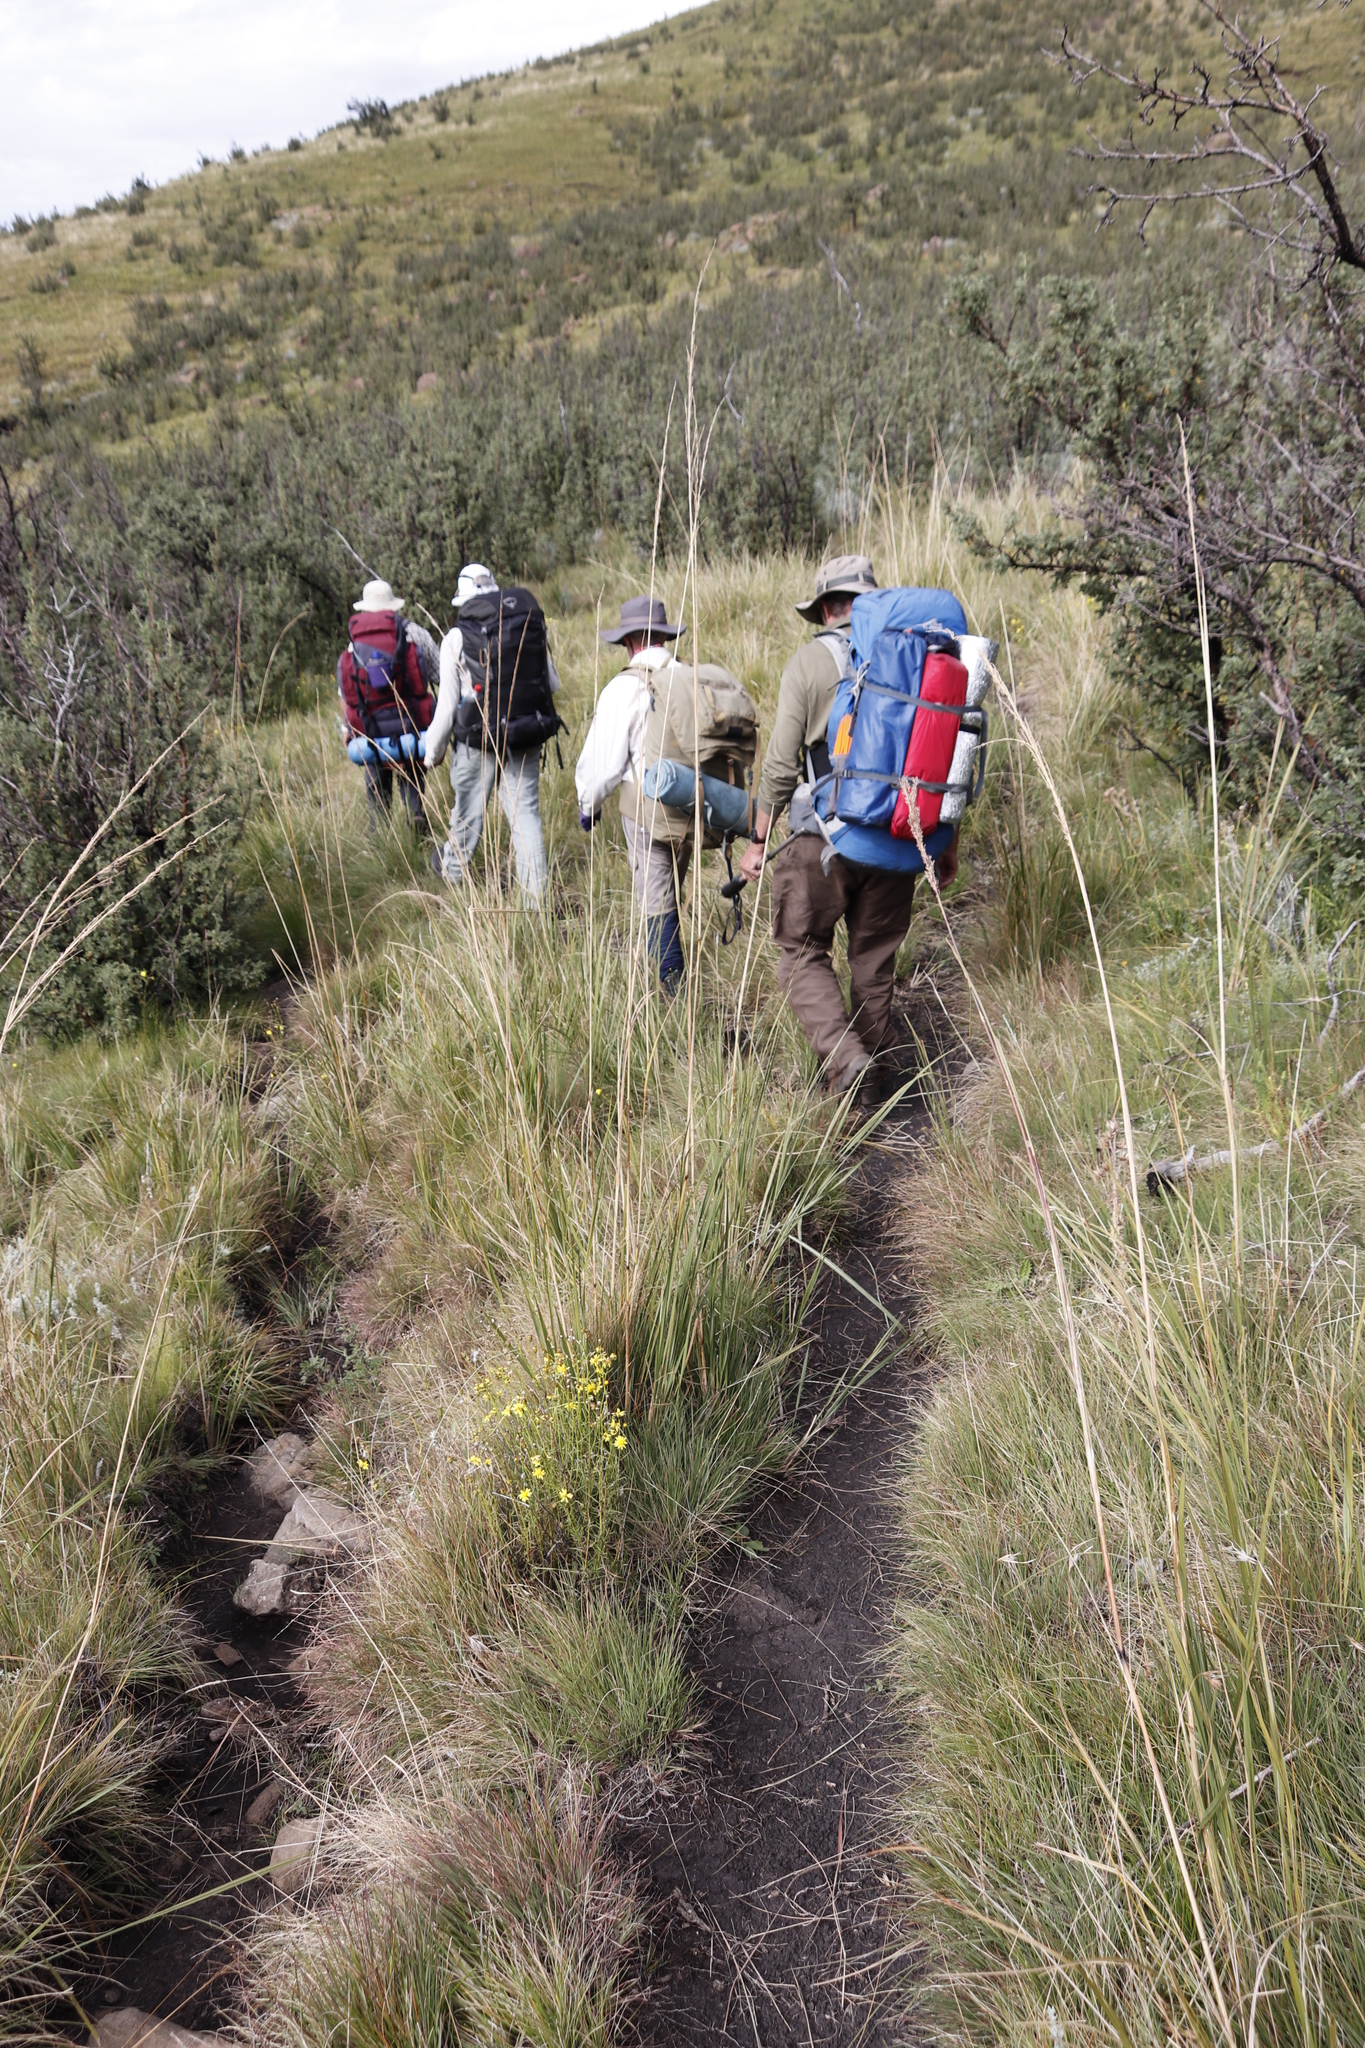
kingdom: Plantae
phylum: Tracheophyta
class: Magnoliopsida
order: Rosales
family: Rosaceae
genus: Leucosidea
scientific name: Leucosidea sericea
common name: Oldwood
